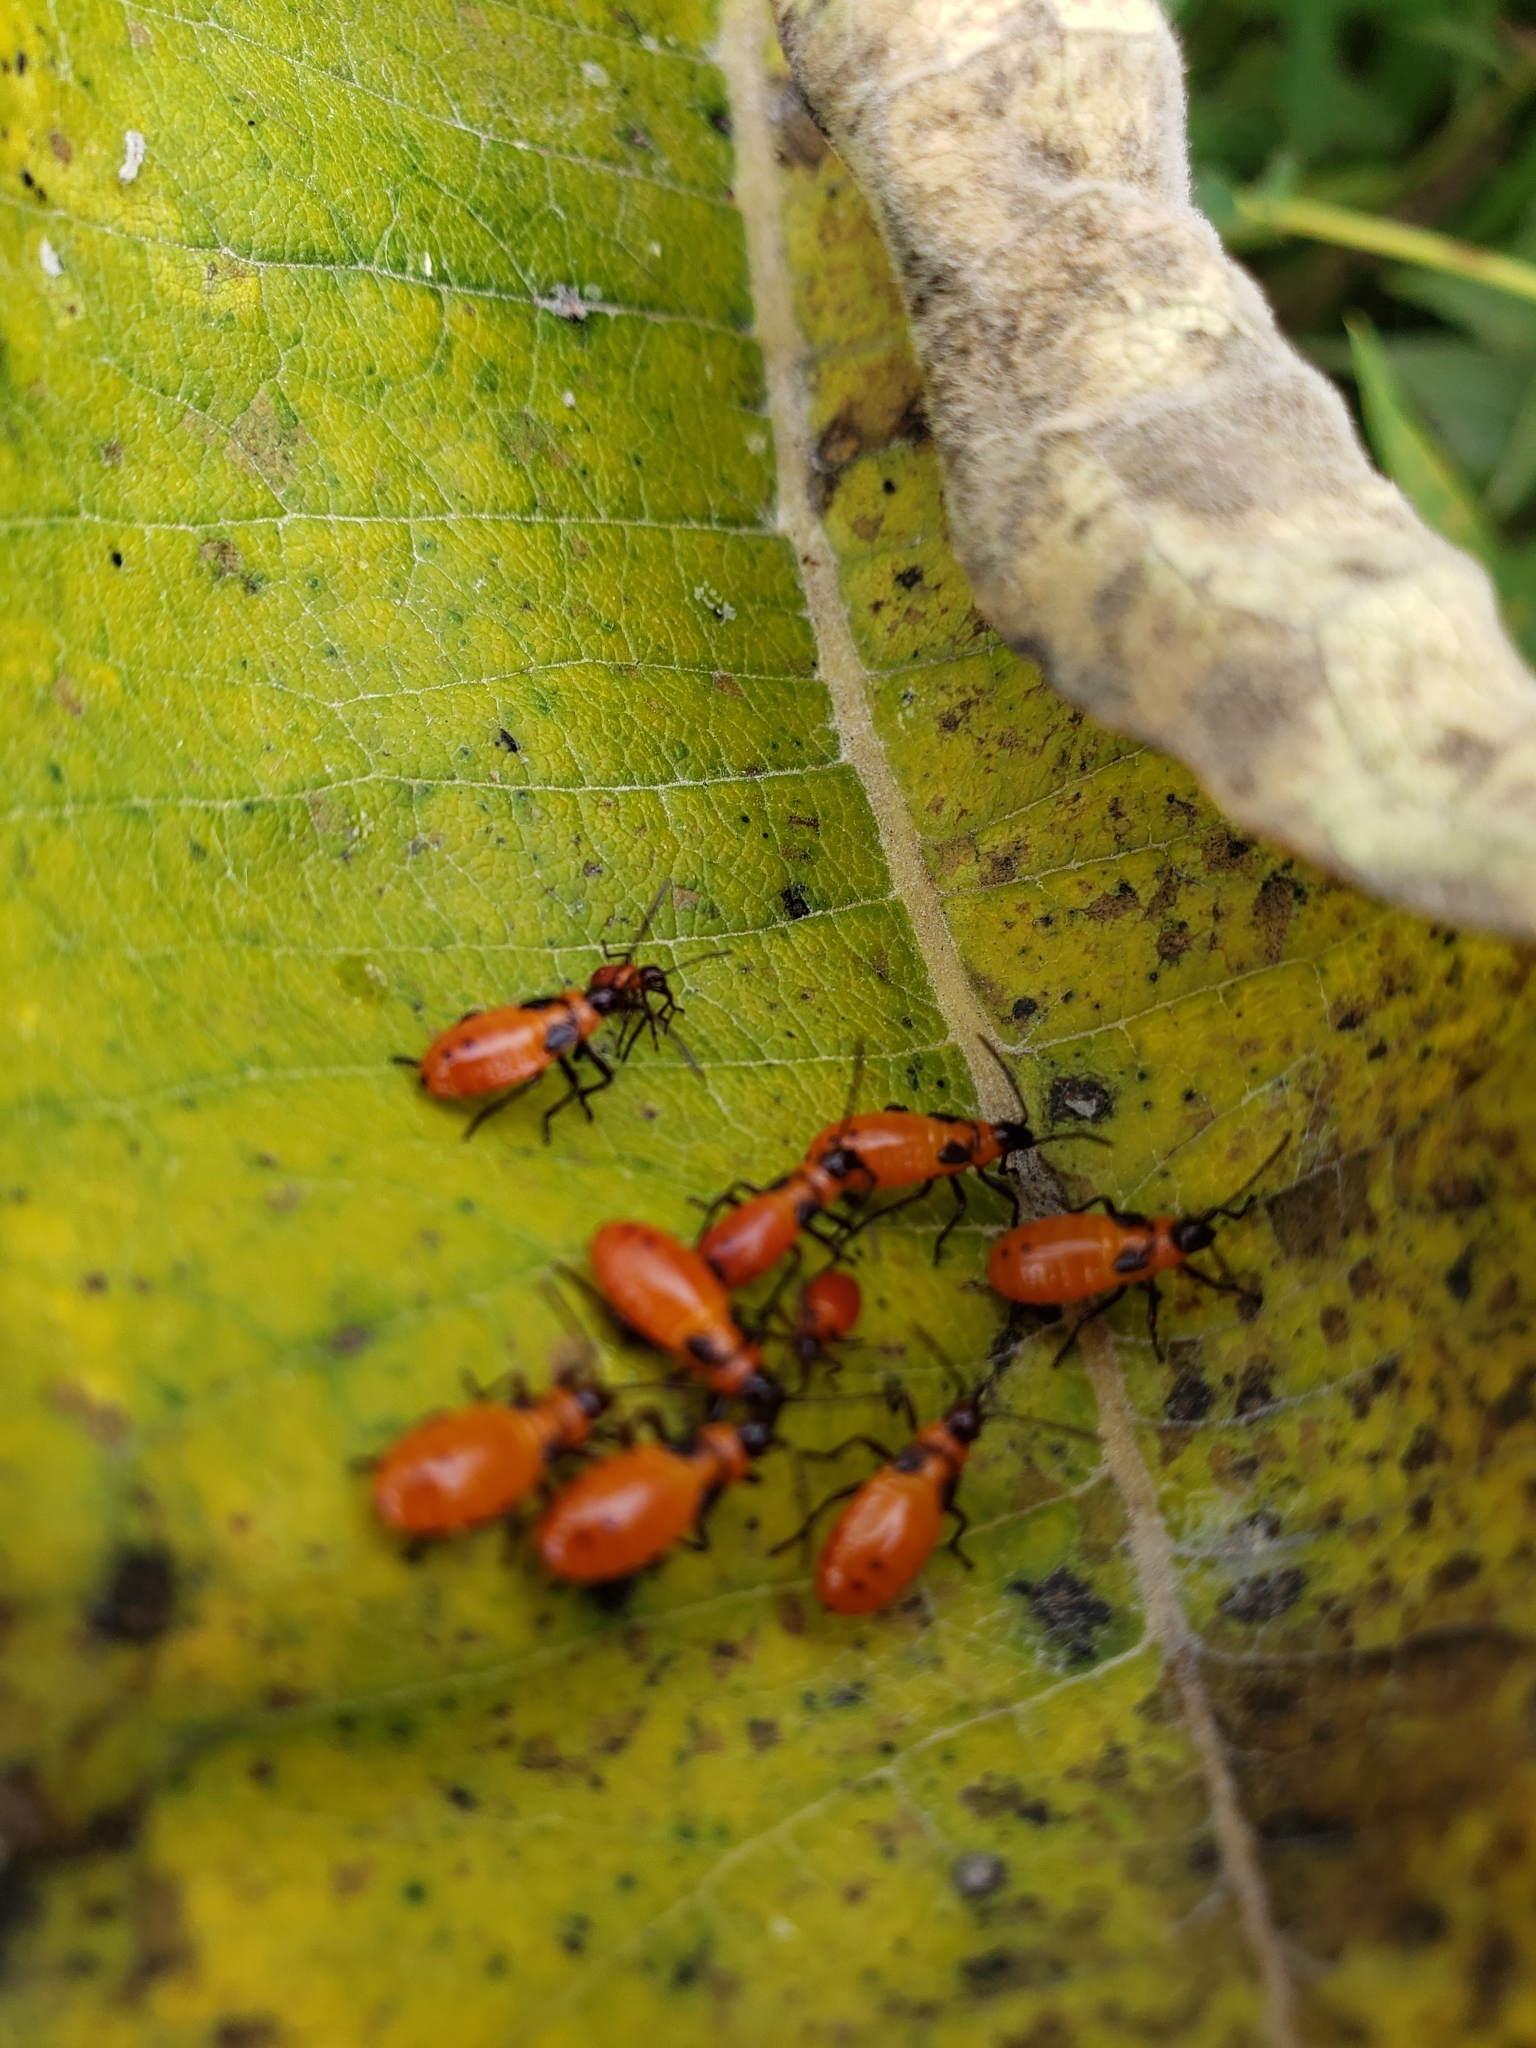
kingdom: Animalia
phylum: Arthropoda
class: Insecta
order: Hemiptera
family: Lygaeidae
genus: Oncopeltus
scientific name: Oncopeltus fasciatus
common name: Large milkweed bug
